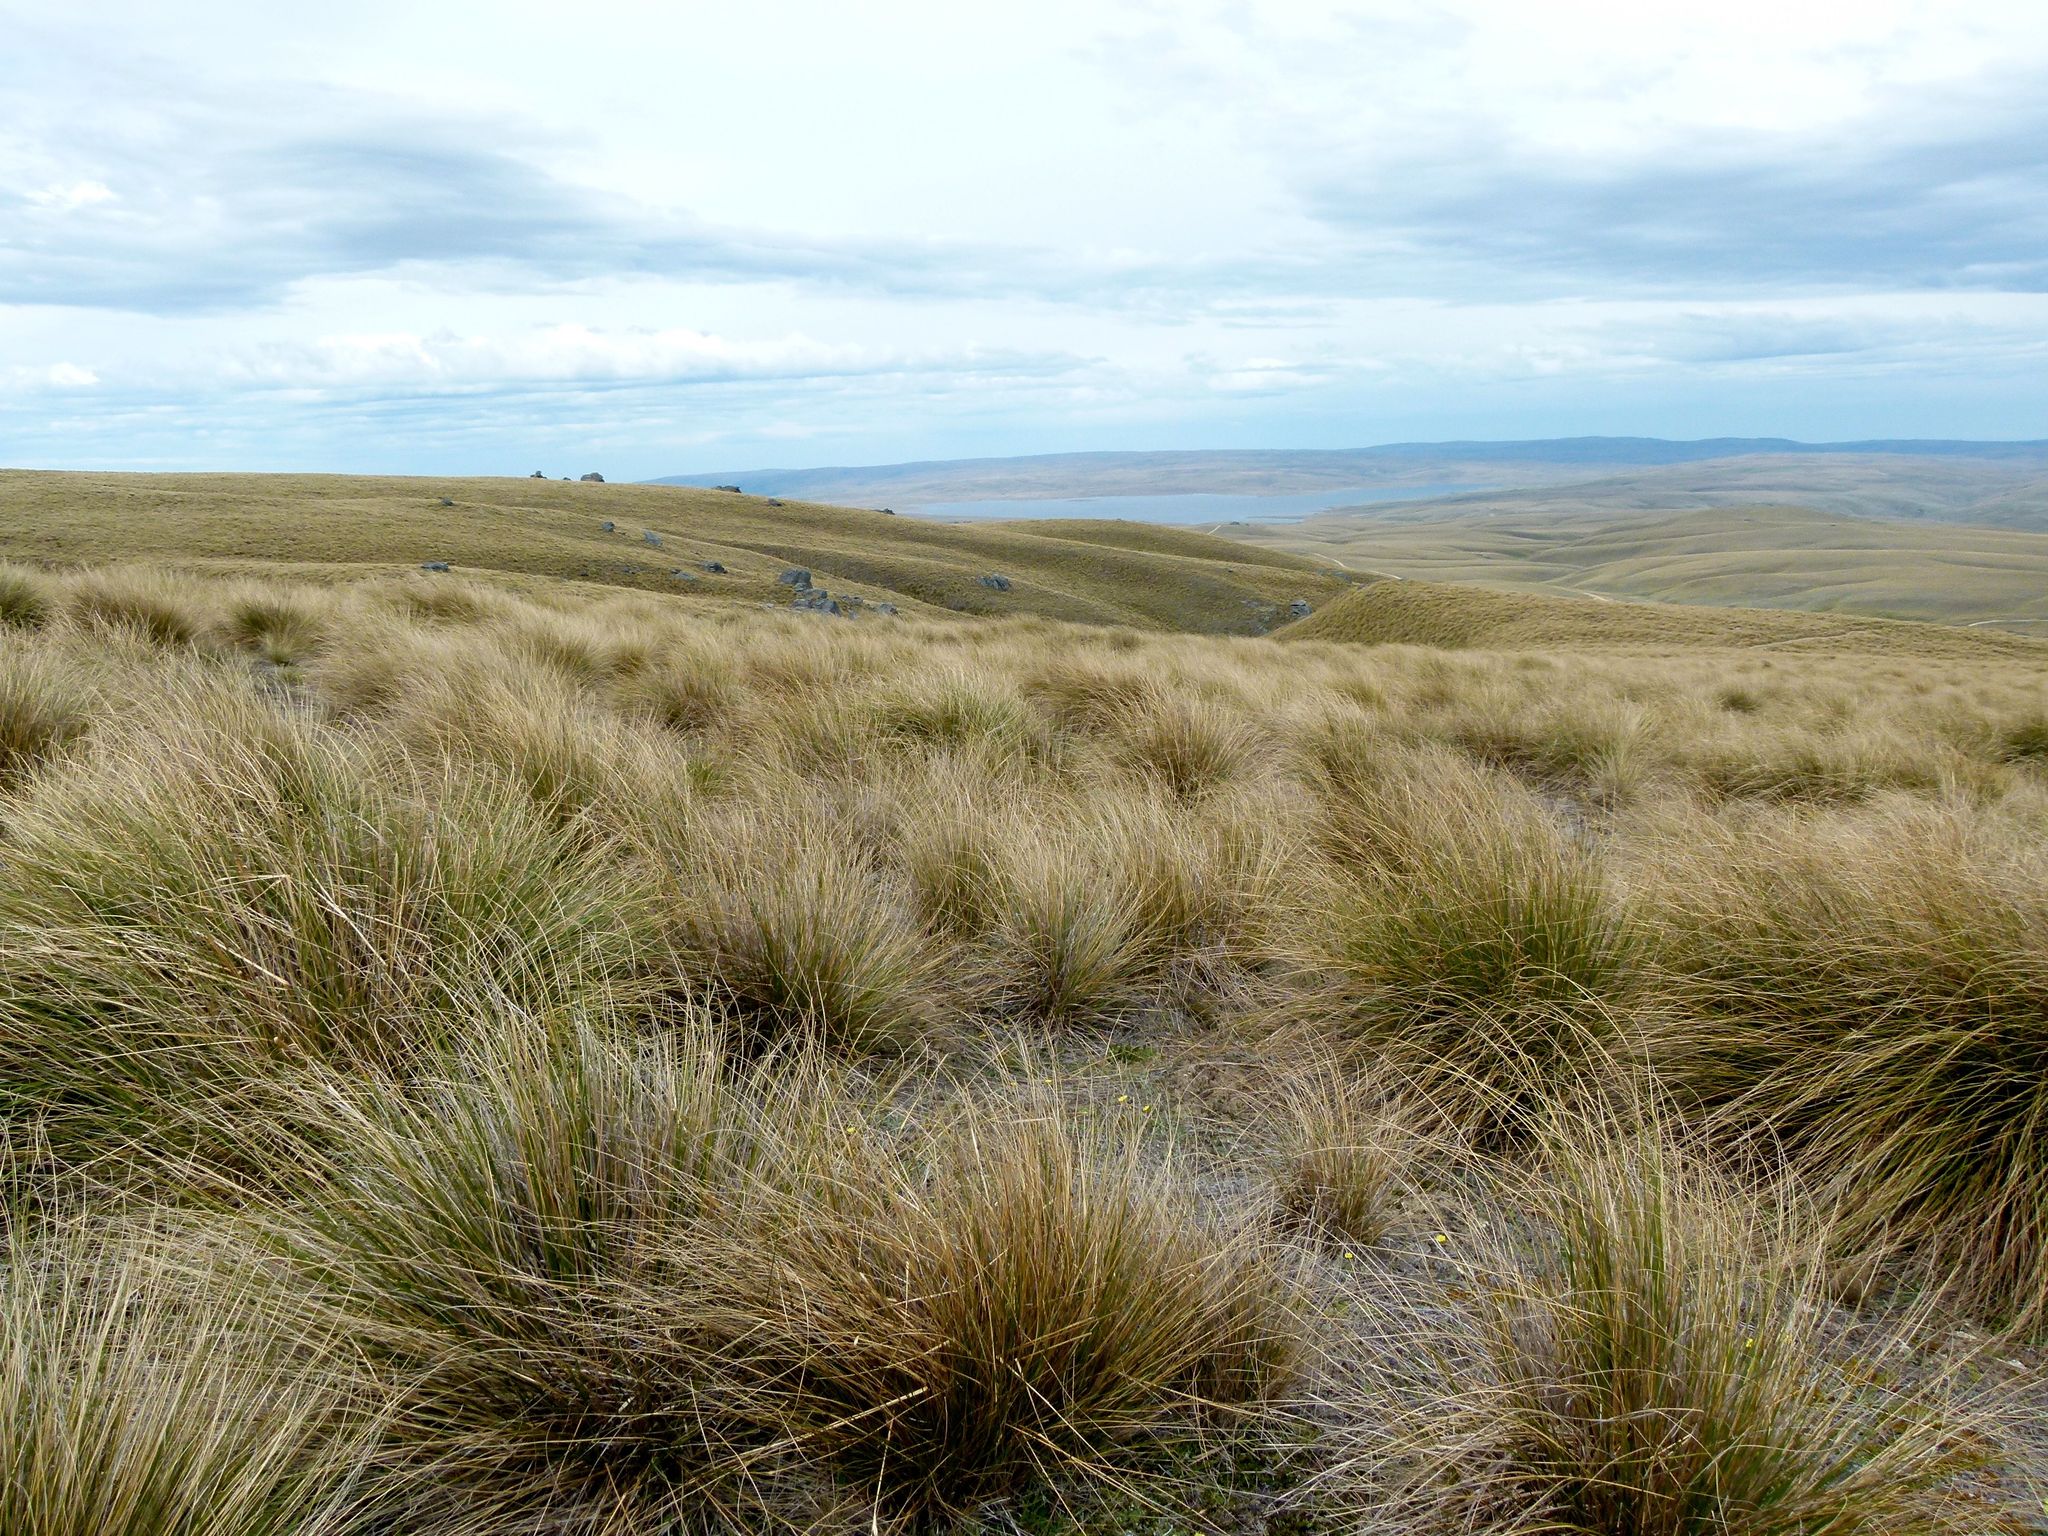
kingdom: Plantae
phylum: Tracheophyta
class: Liliopsida
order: Poales
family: Poaceae
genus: Chionochloa
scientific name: Chionochloa rigida
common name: Narrow leaved snow tussock
